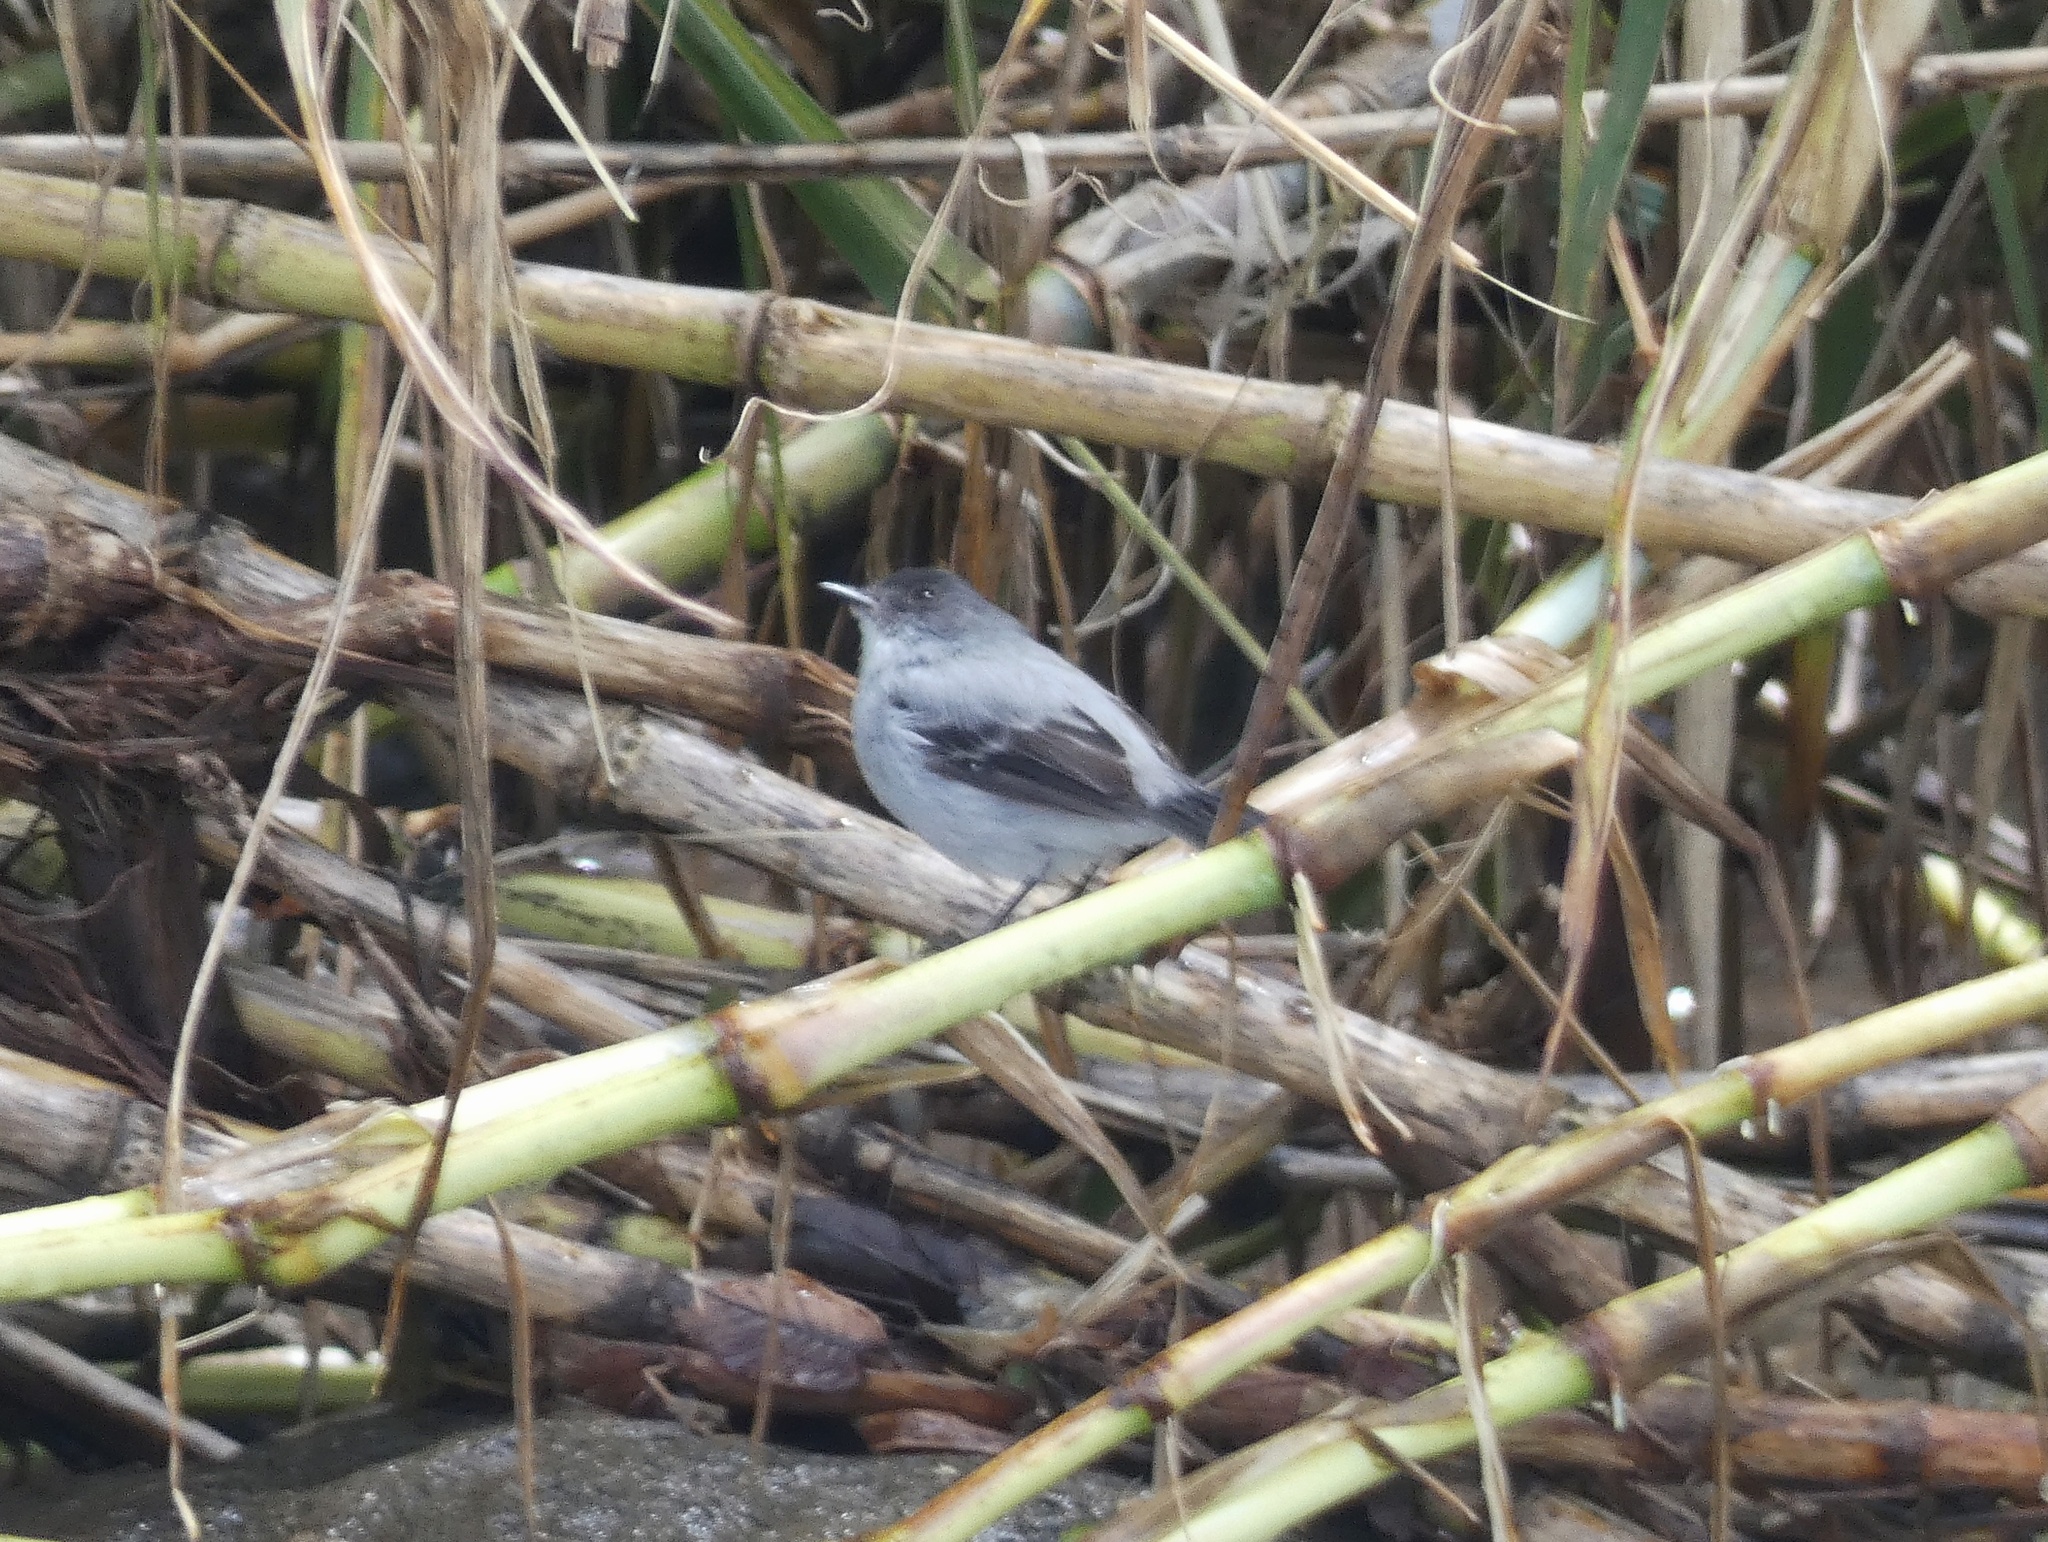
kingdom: Animalia
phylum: Chordata
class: Aves
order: Passeriformes
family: Tyrannidae
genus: Serpophaga
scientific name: Serpophaga cinerea
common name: Torrent tyrannulet
